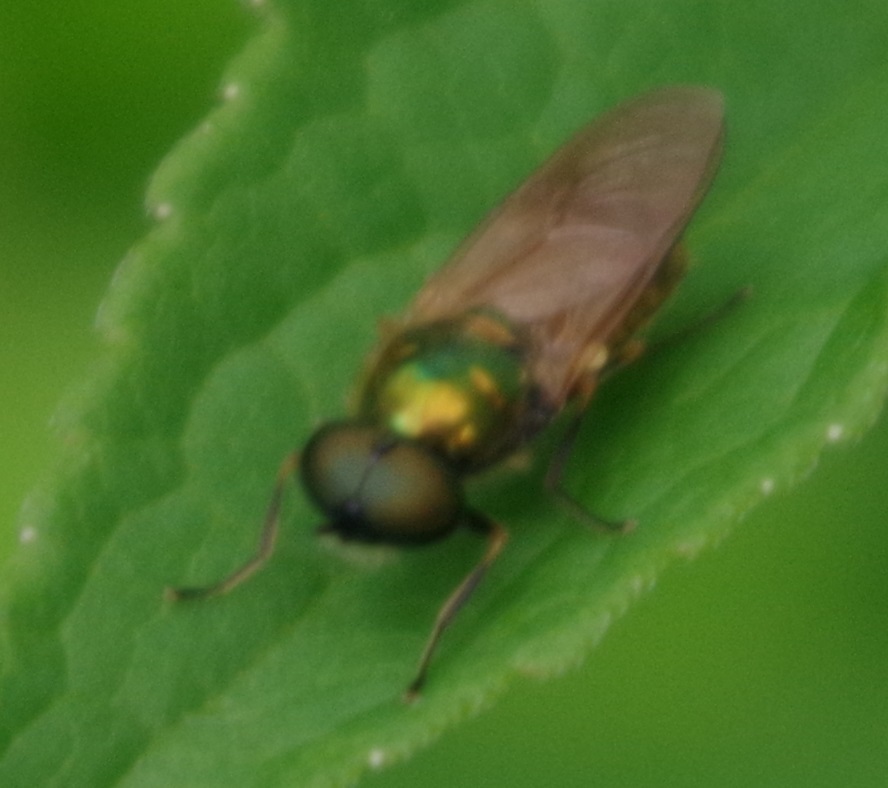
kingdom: Animalia
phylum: Arthropoda
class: Insecta
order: Diptera
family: Stratiomyidae
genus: Chloromyia
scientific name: Chloromyia formosa
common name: Soldier fly
